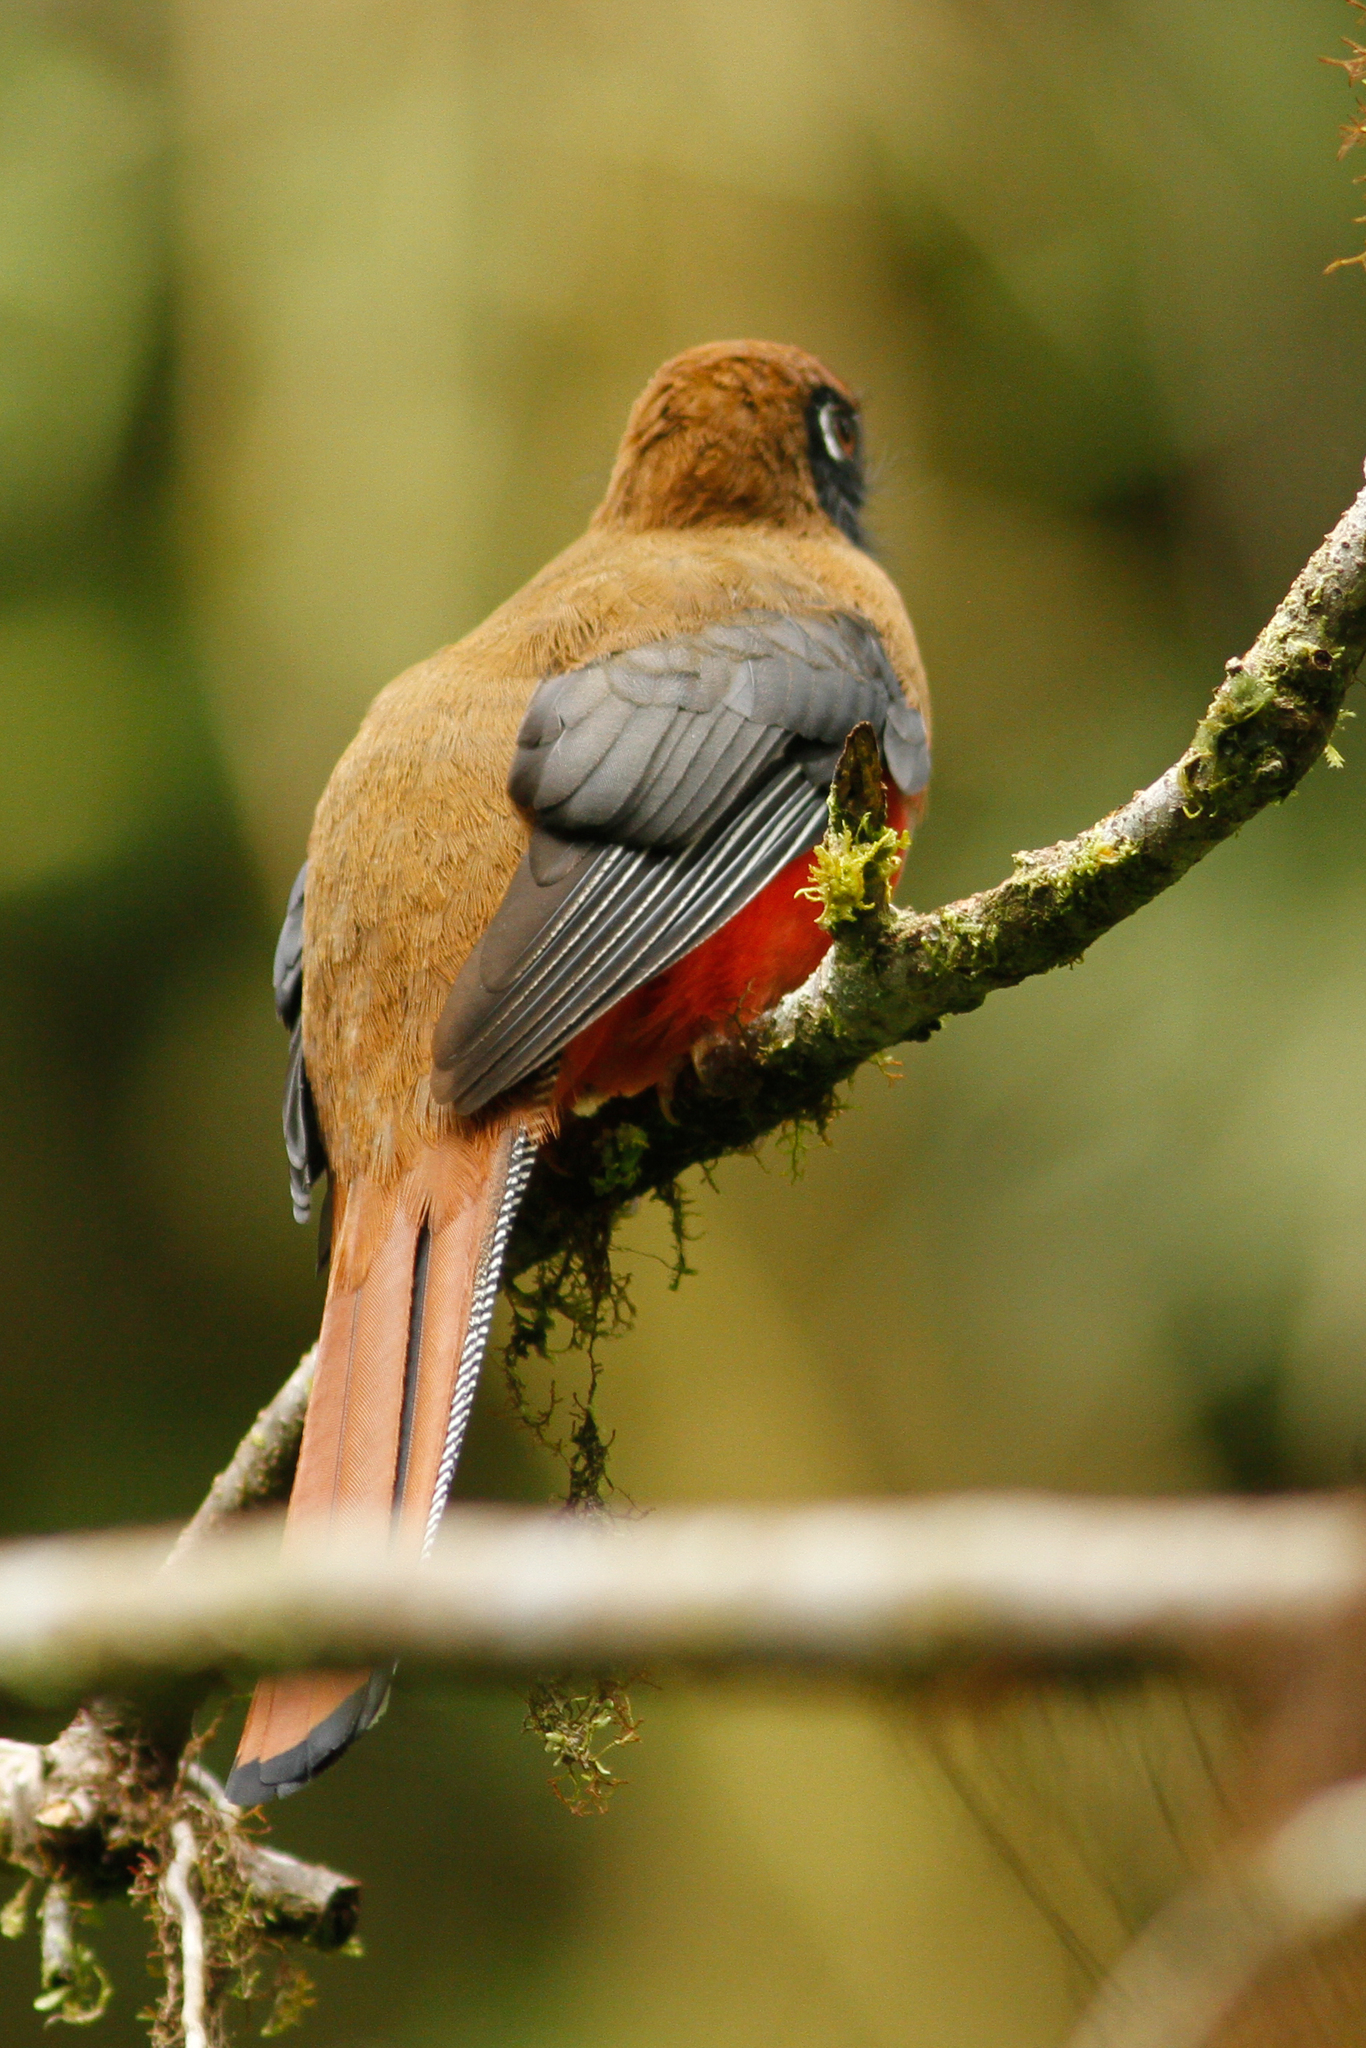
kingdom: Animalia
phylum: Chordata
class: Aves
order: Trogoniformes
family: Trogonidae
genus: Trogon
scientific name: Trogon personatus
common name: Masked trogon
